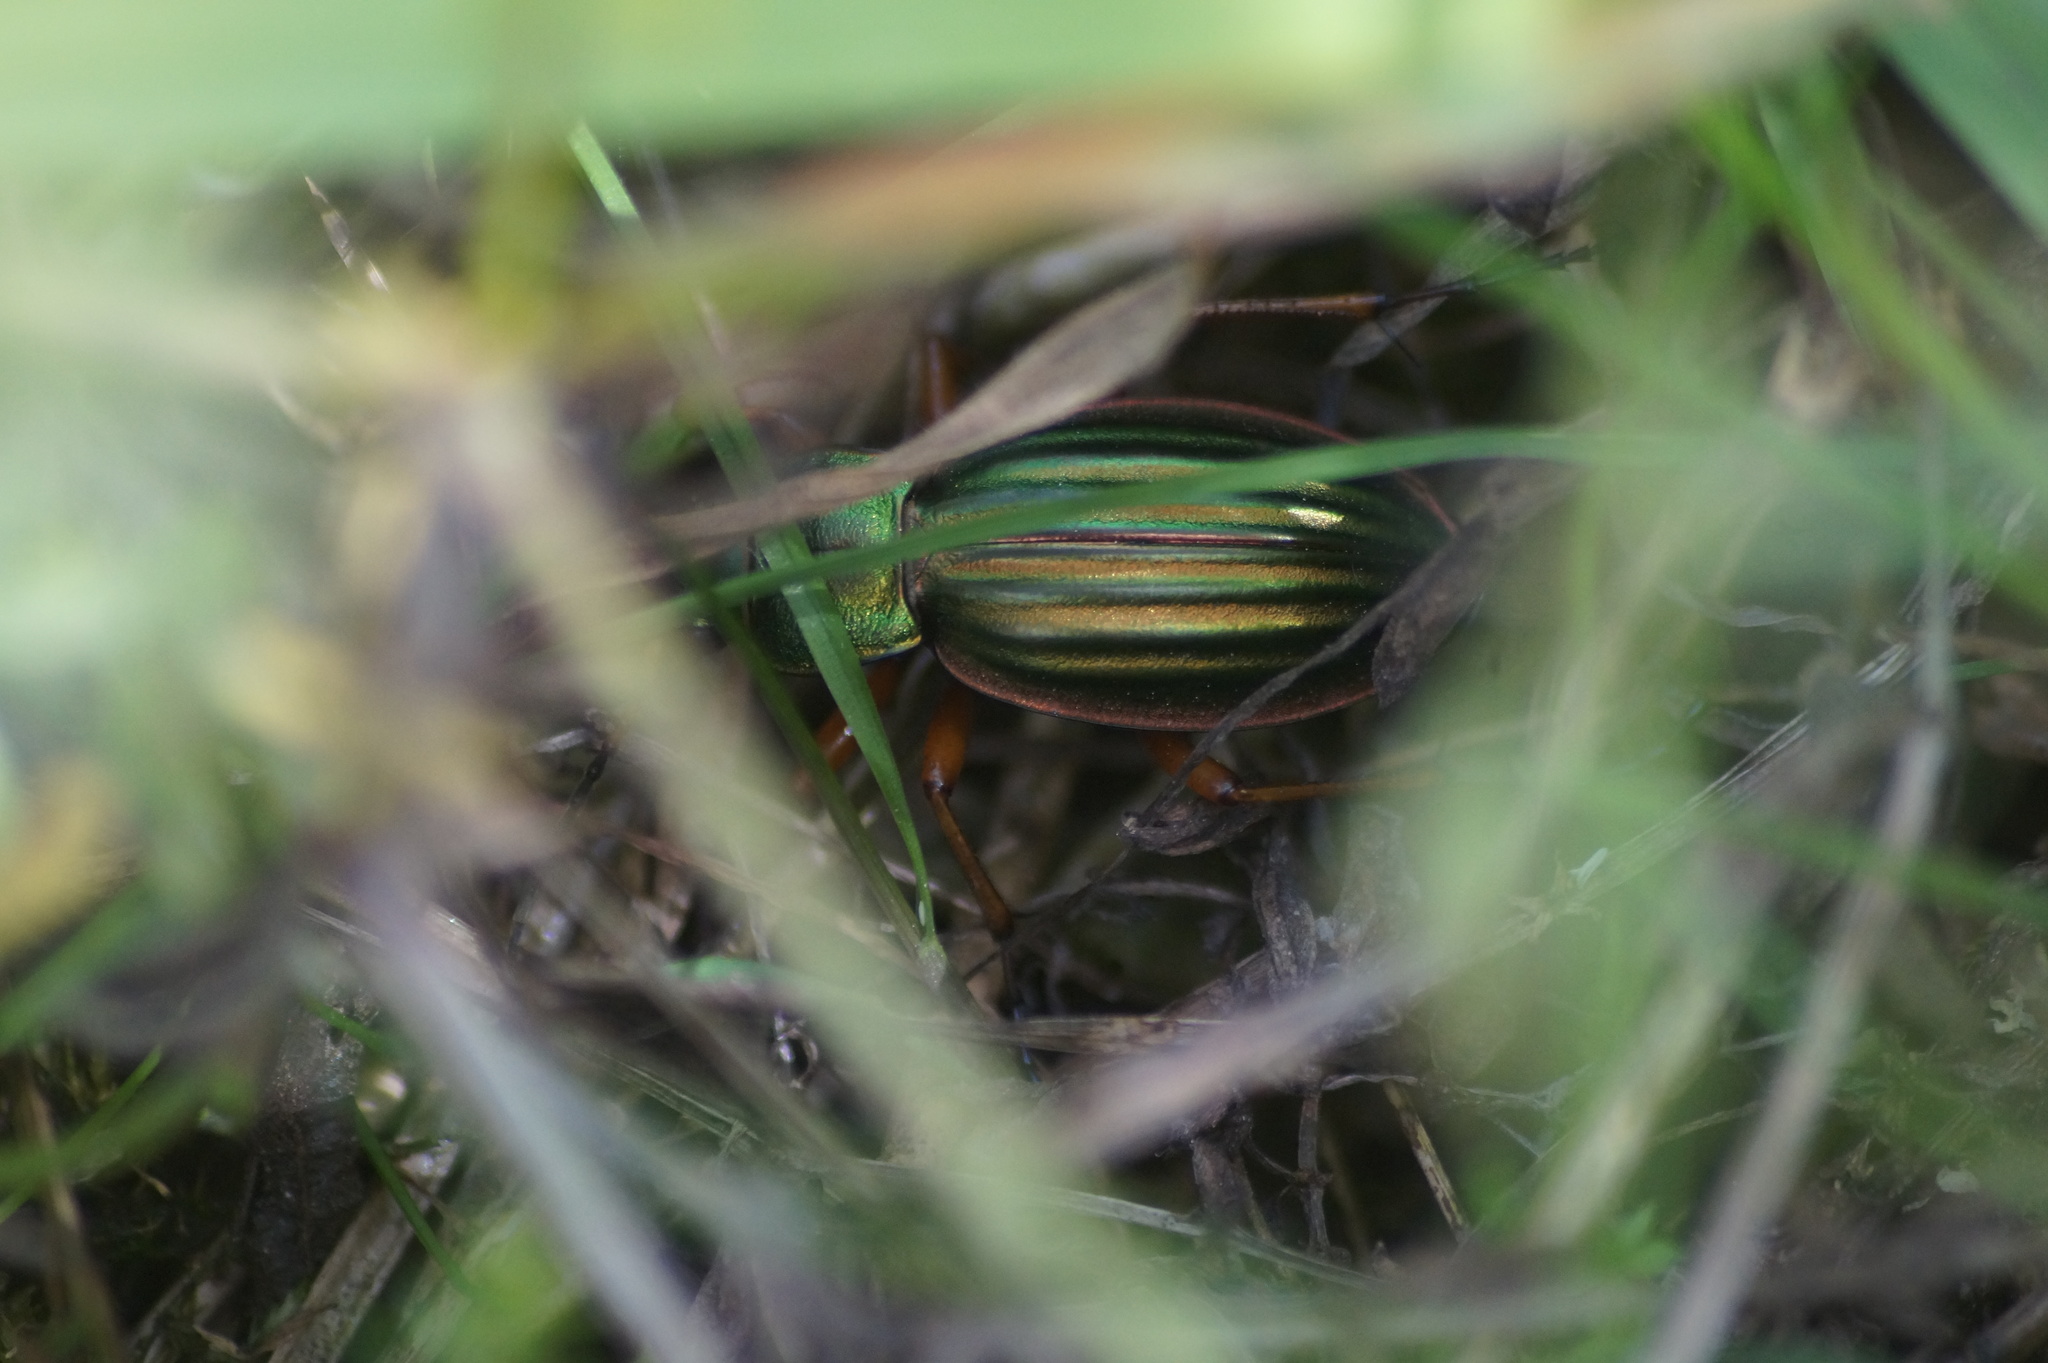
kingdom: Animalia
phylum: Arthropoda
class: Insecta
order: Coleoptera
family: Carabidae
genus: Carabus
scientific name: Carabus auratus
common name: Golden ground beetle
